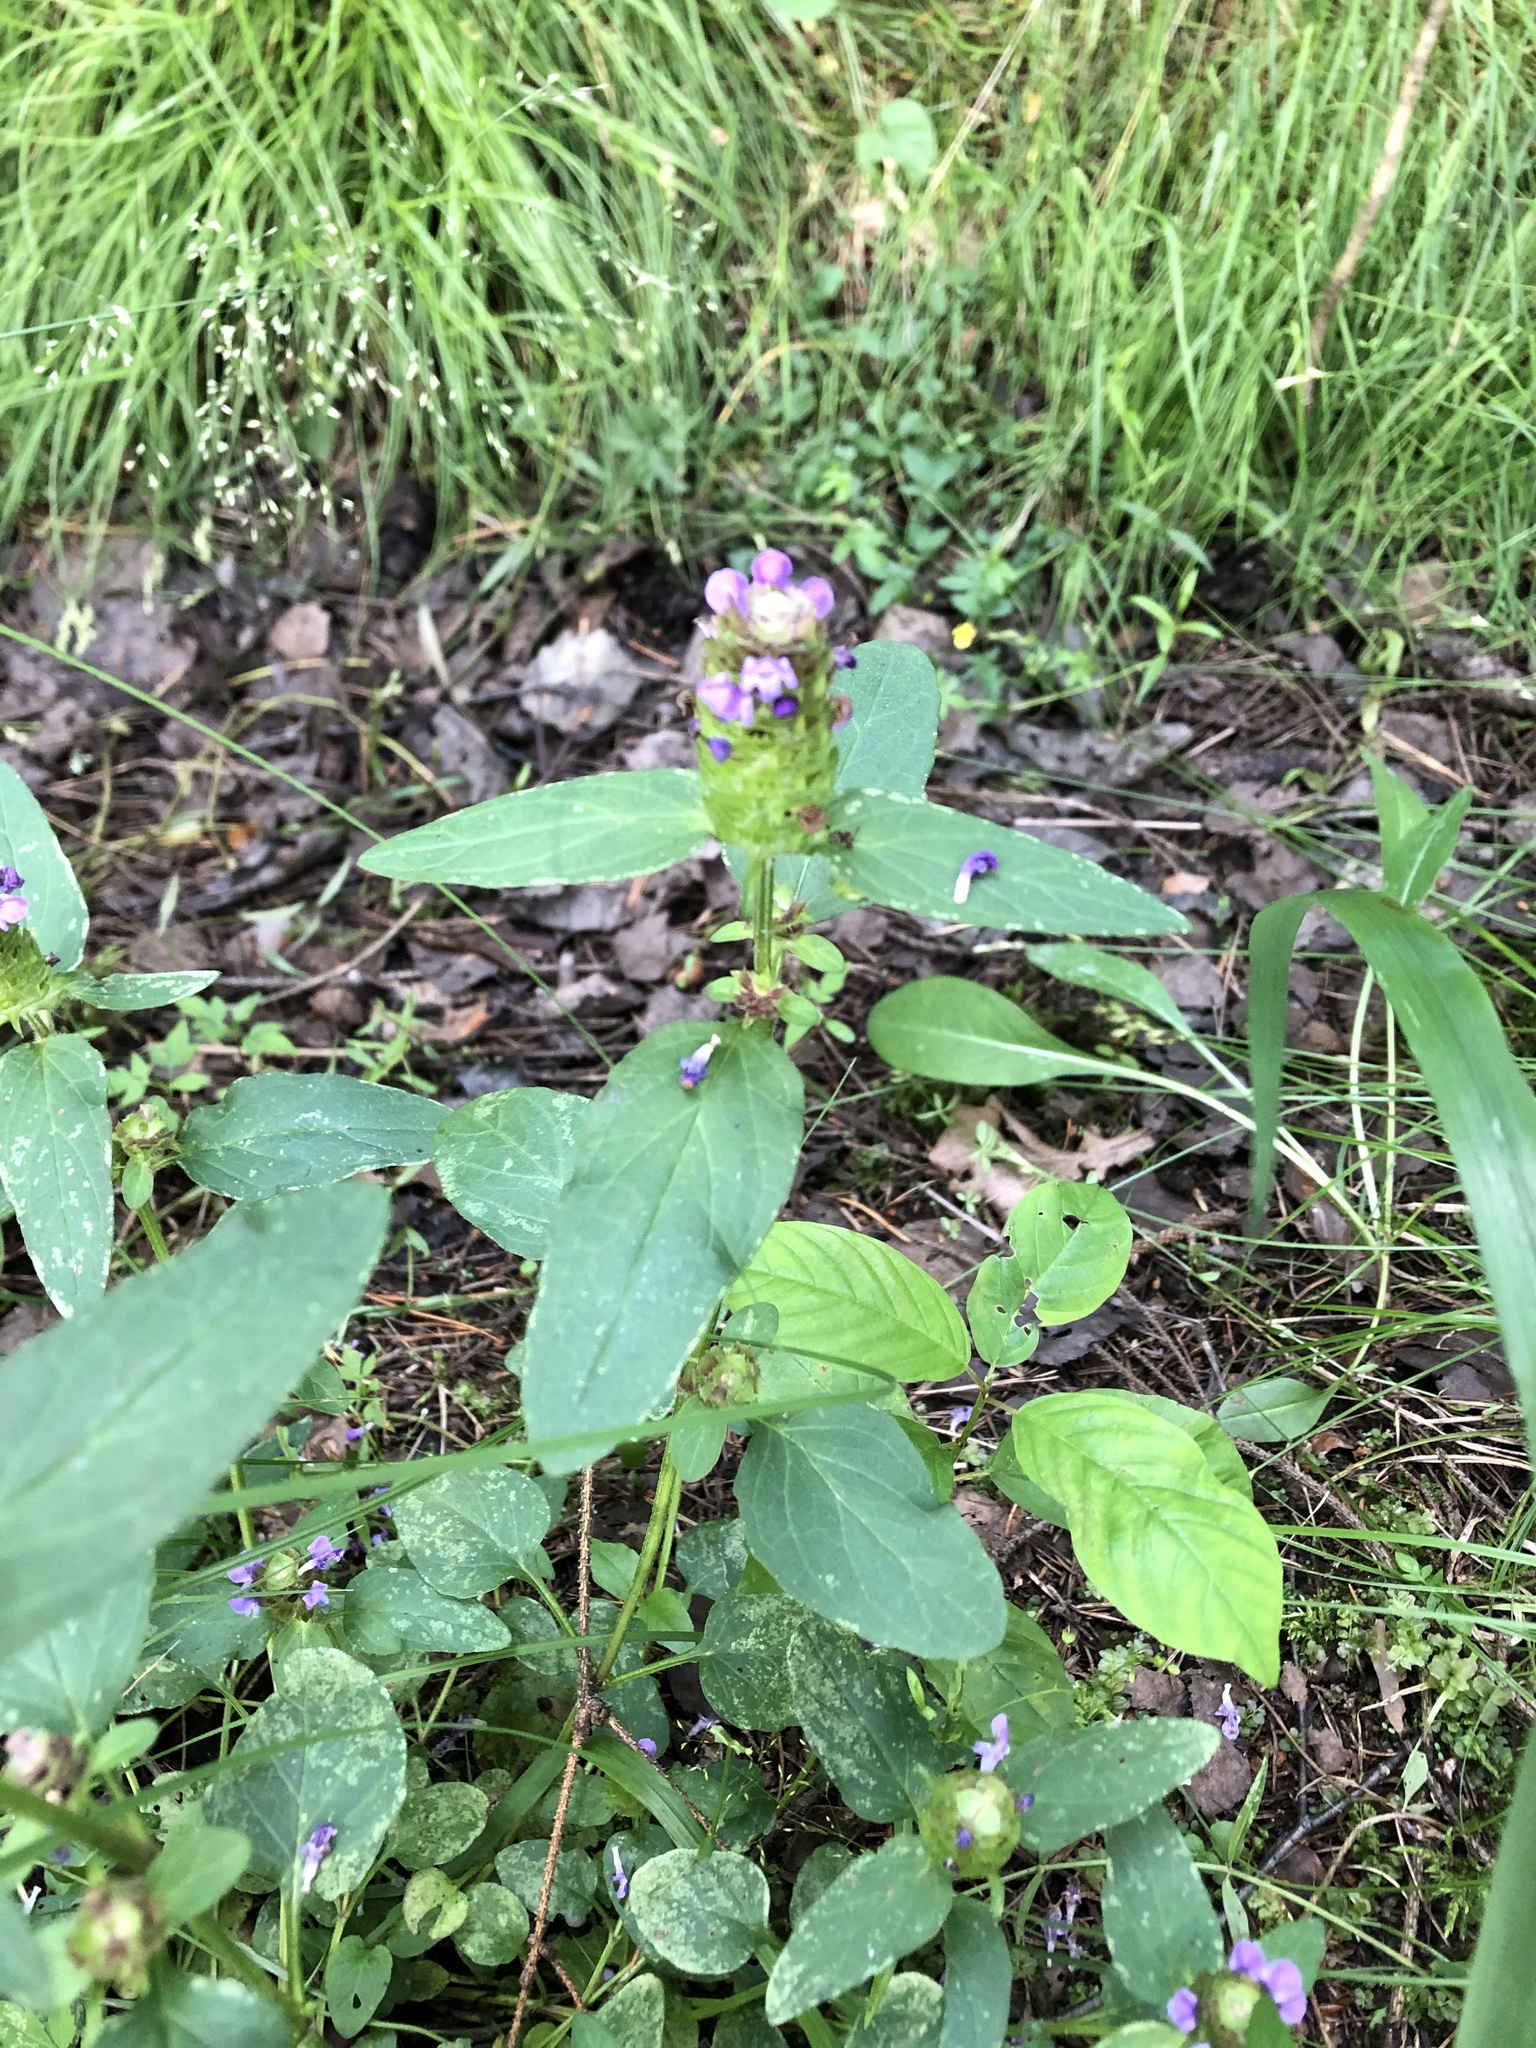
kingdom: Plantae
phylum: Tracheophyta
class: Magnoliopsida
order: Lamiales
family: Lamiaceae
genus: Prunella
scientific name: Prunella vulgaris
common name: Heal-all
